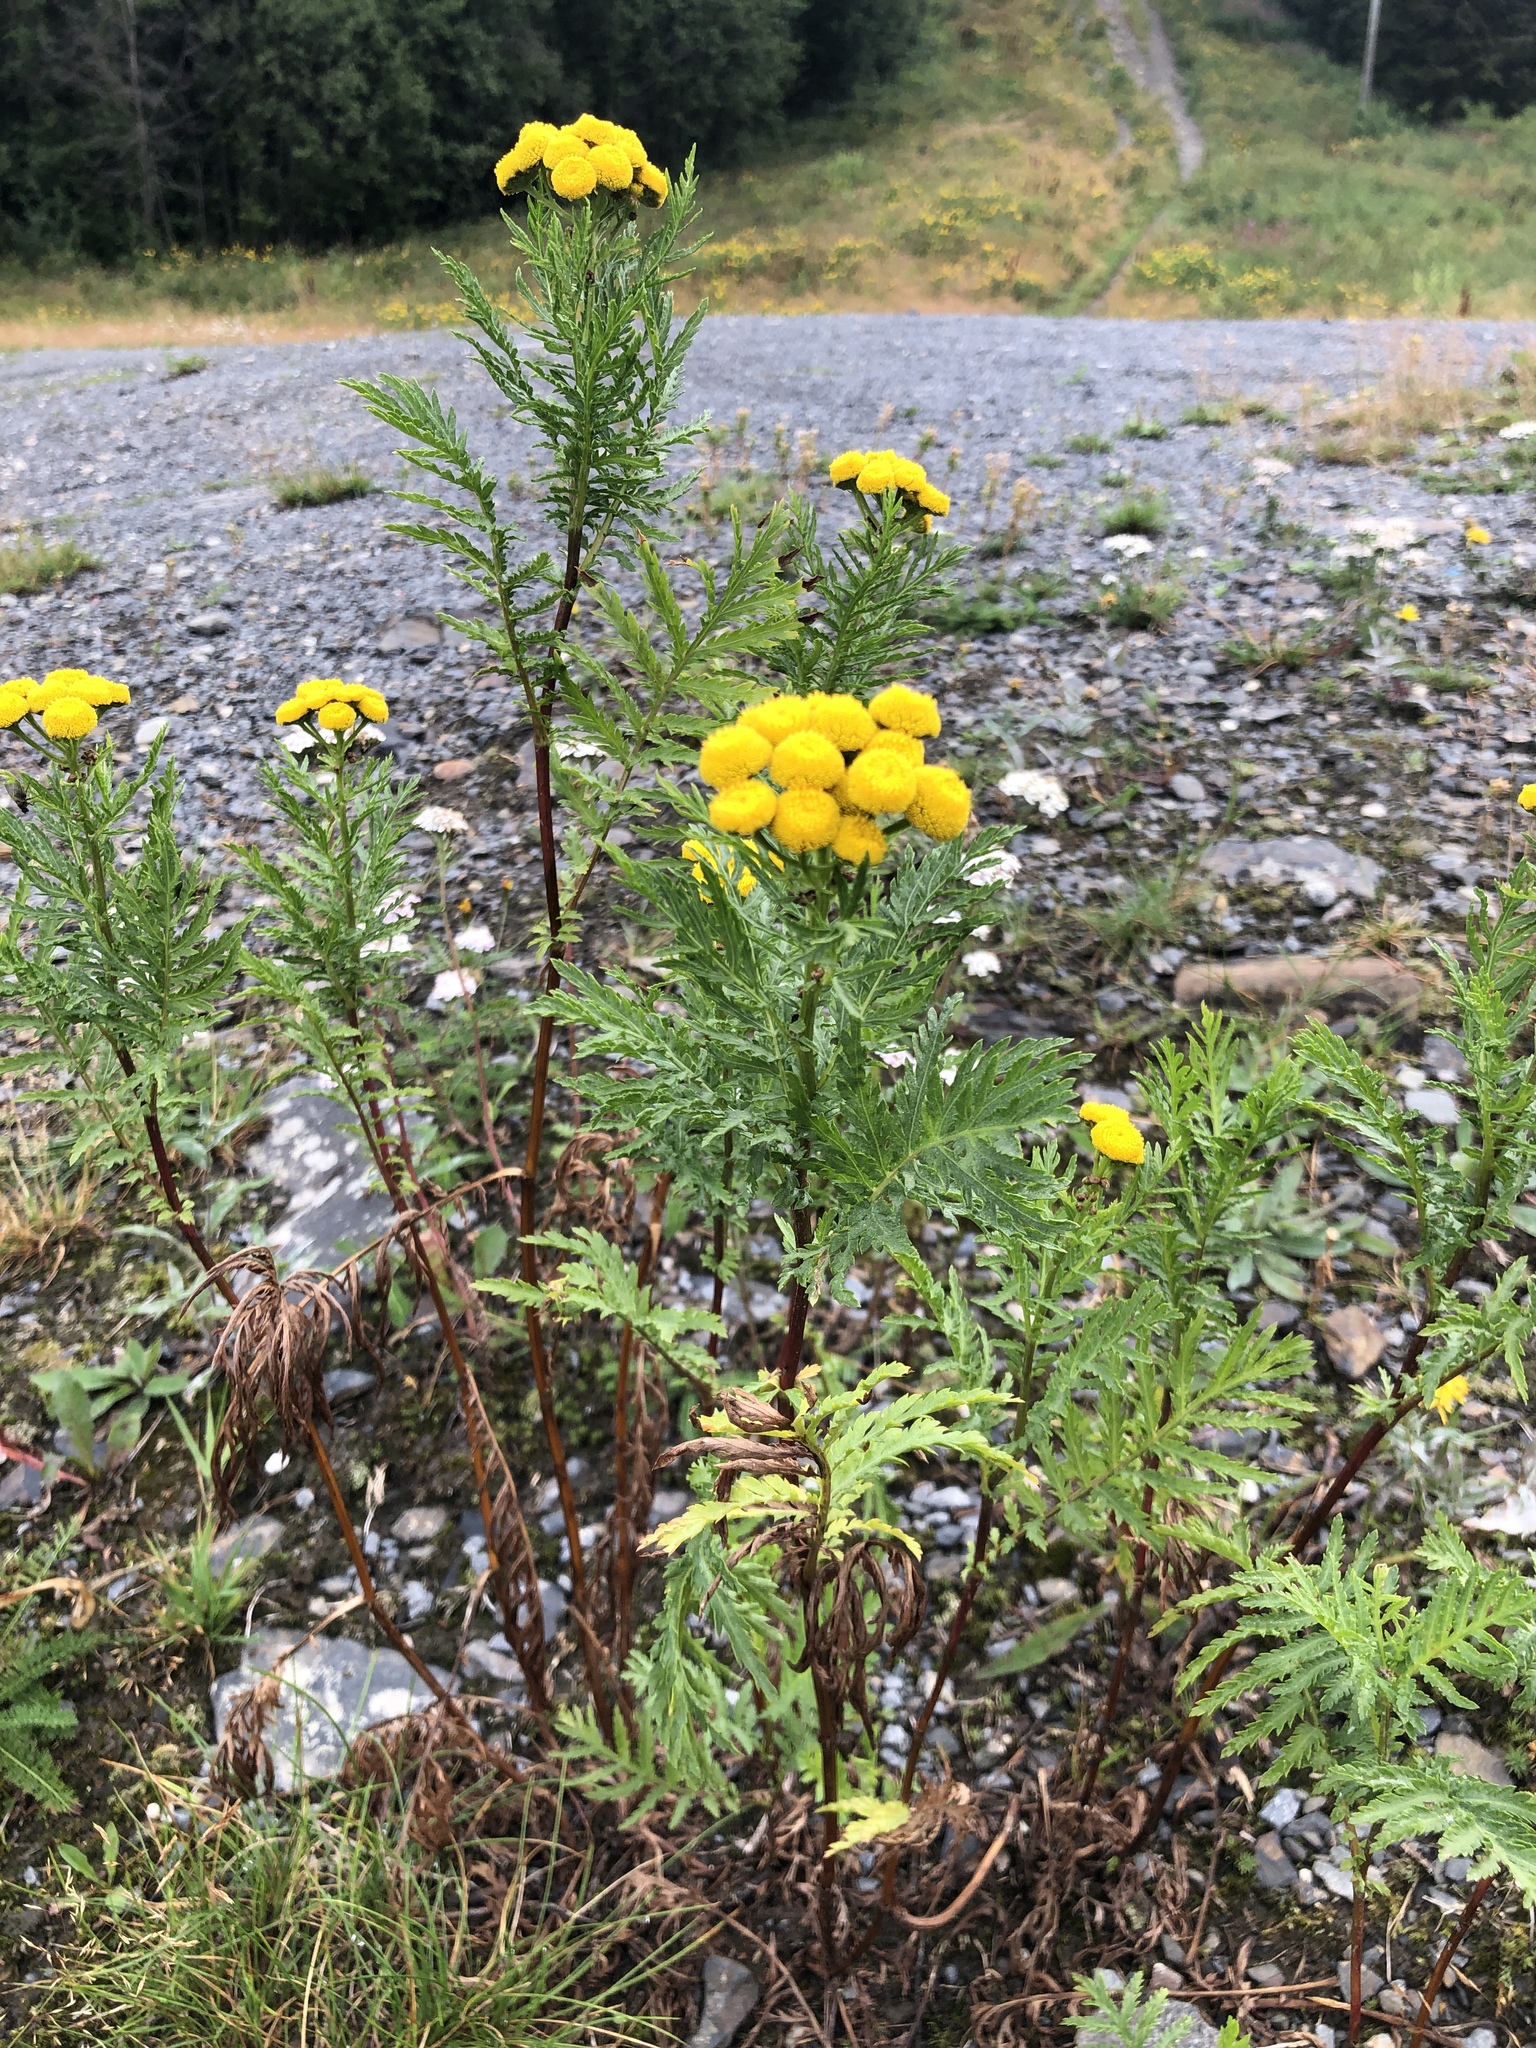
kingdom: Plantae
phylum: Tracheophyta
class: Magnoliopsida
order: Asterales
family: Asteraceae
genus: Tanacetum
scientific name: Tanacetum vulgare
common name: Common tansy
